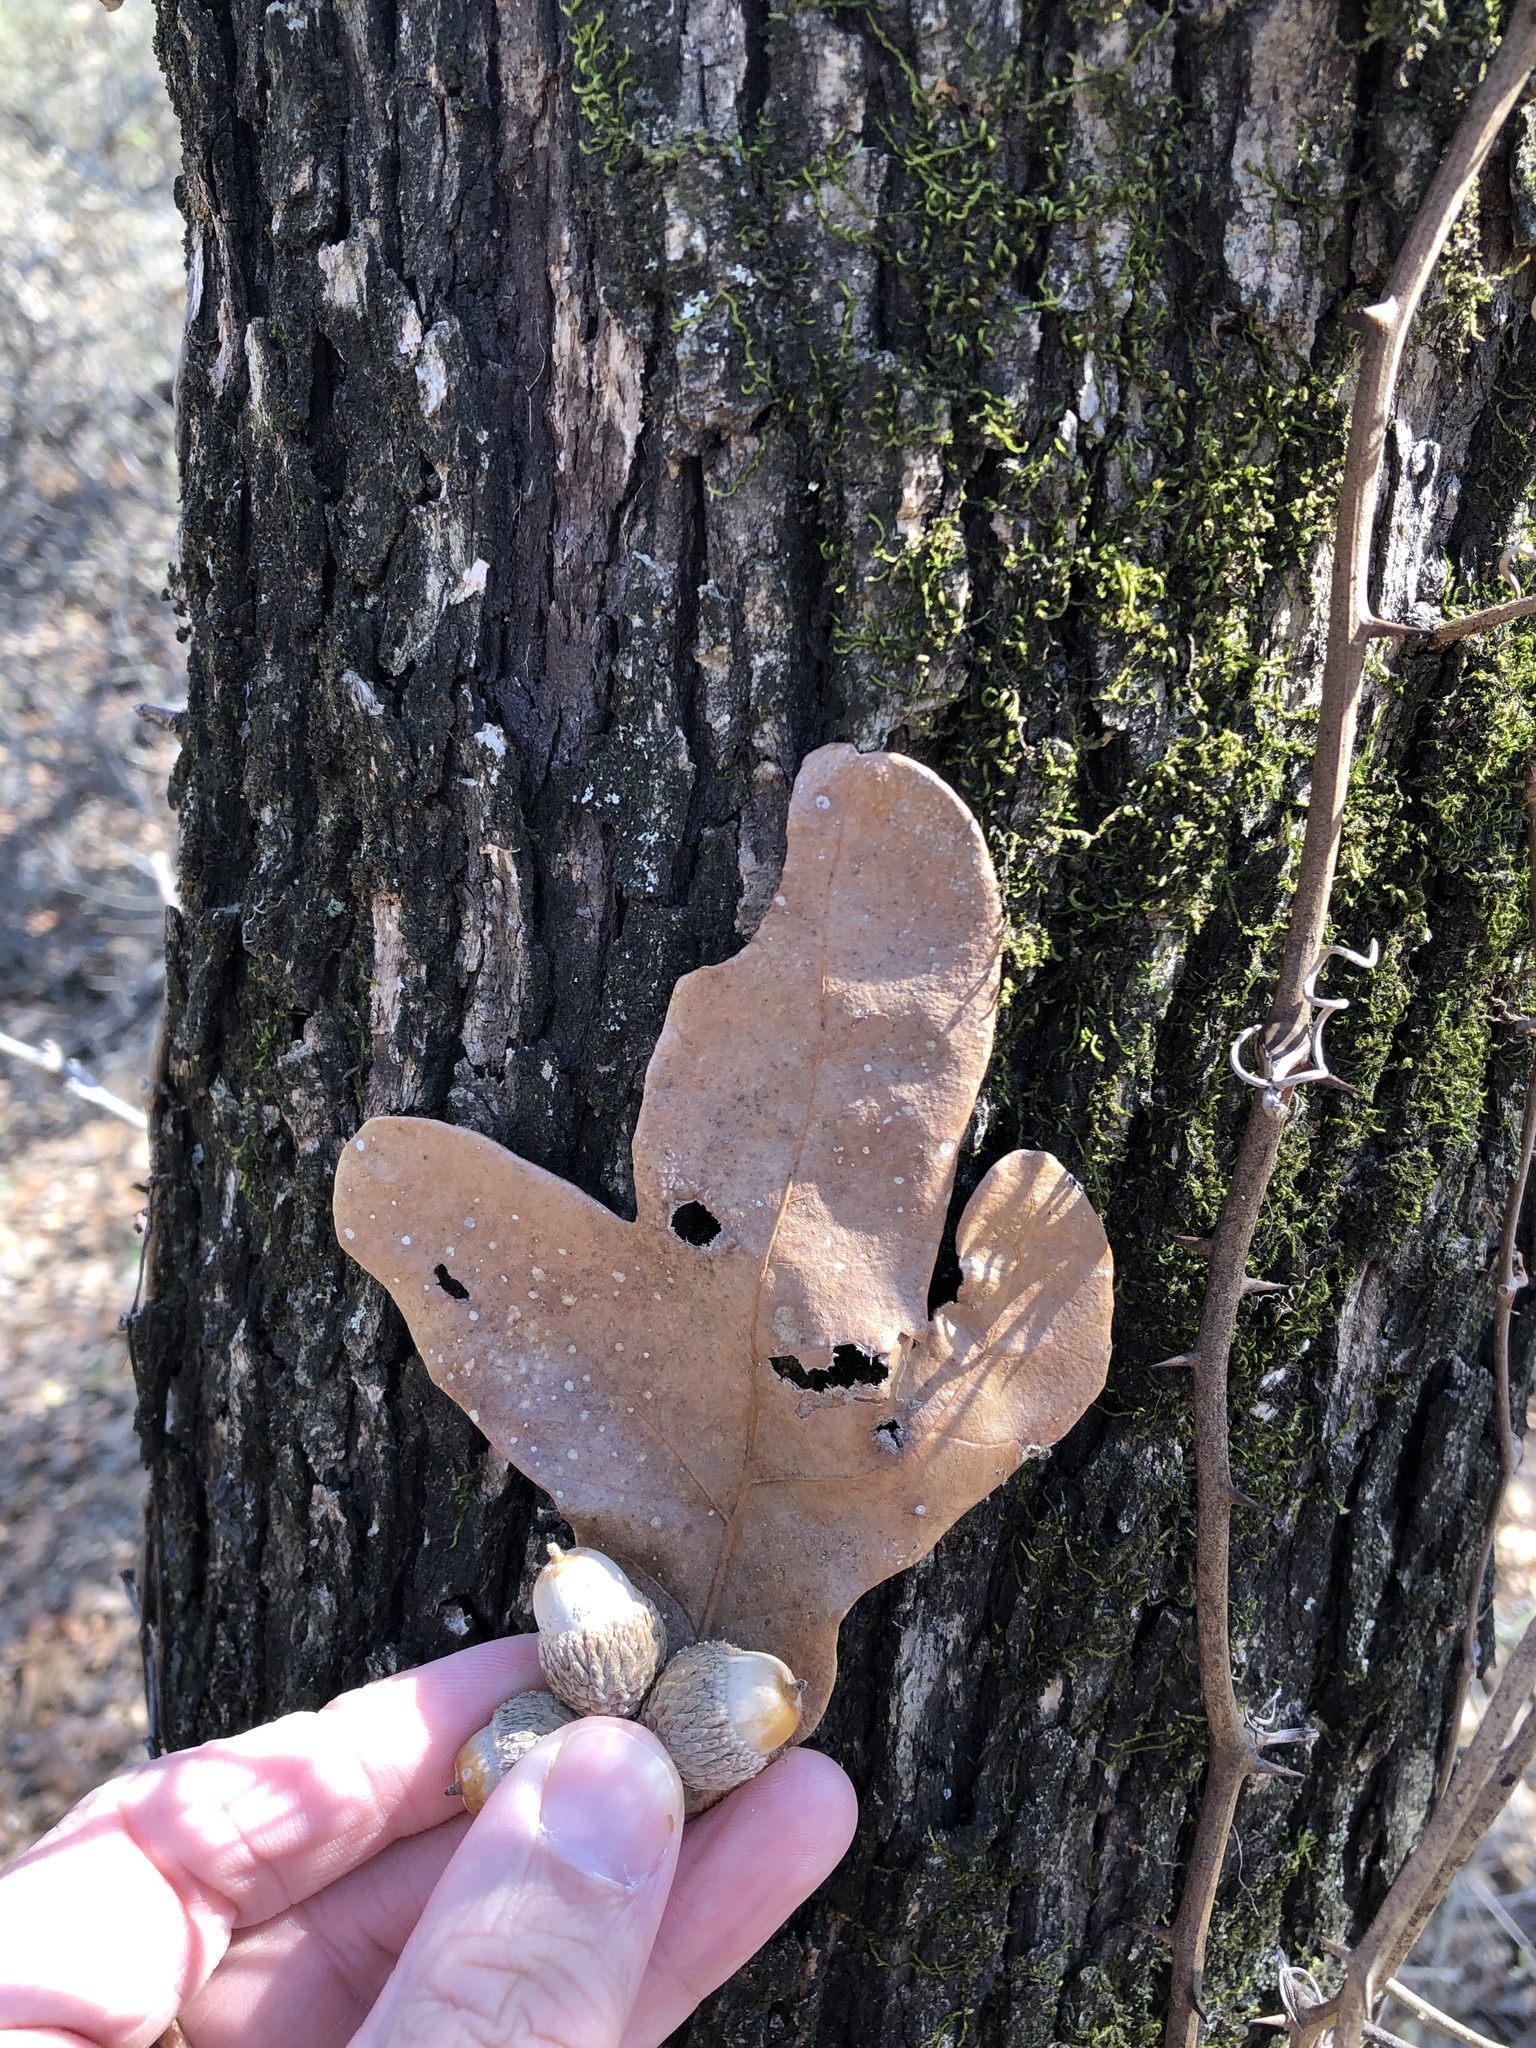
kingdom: Plantae
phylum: Tracheophyta
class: Magnoliopsida
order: Fagales
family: Fagaceae
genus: Quercus
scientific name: Quercus stellata
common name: Post oak
